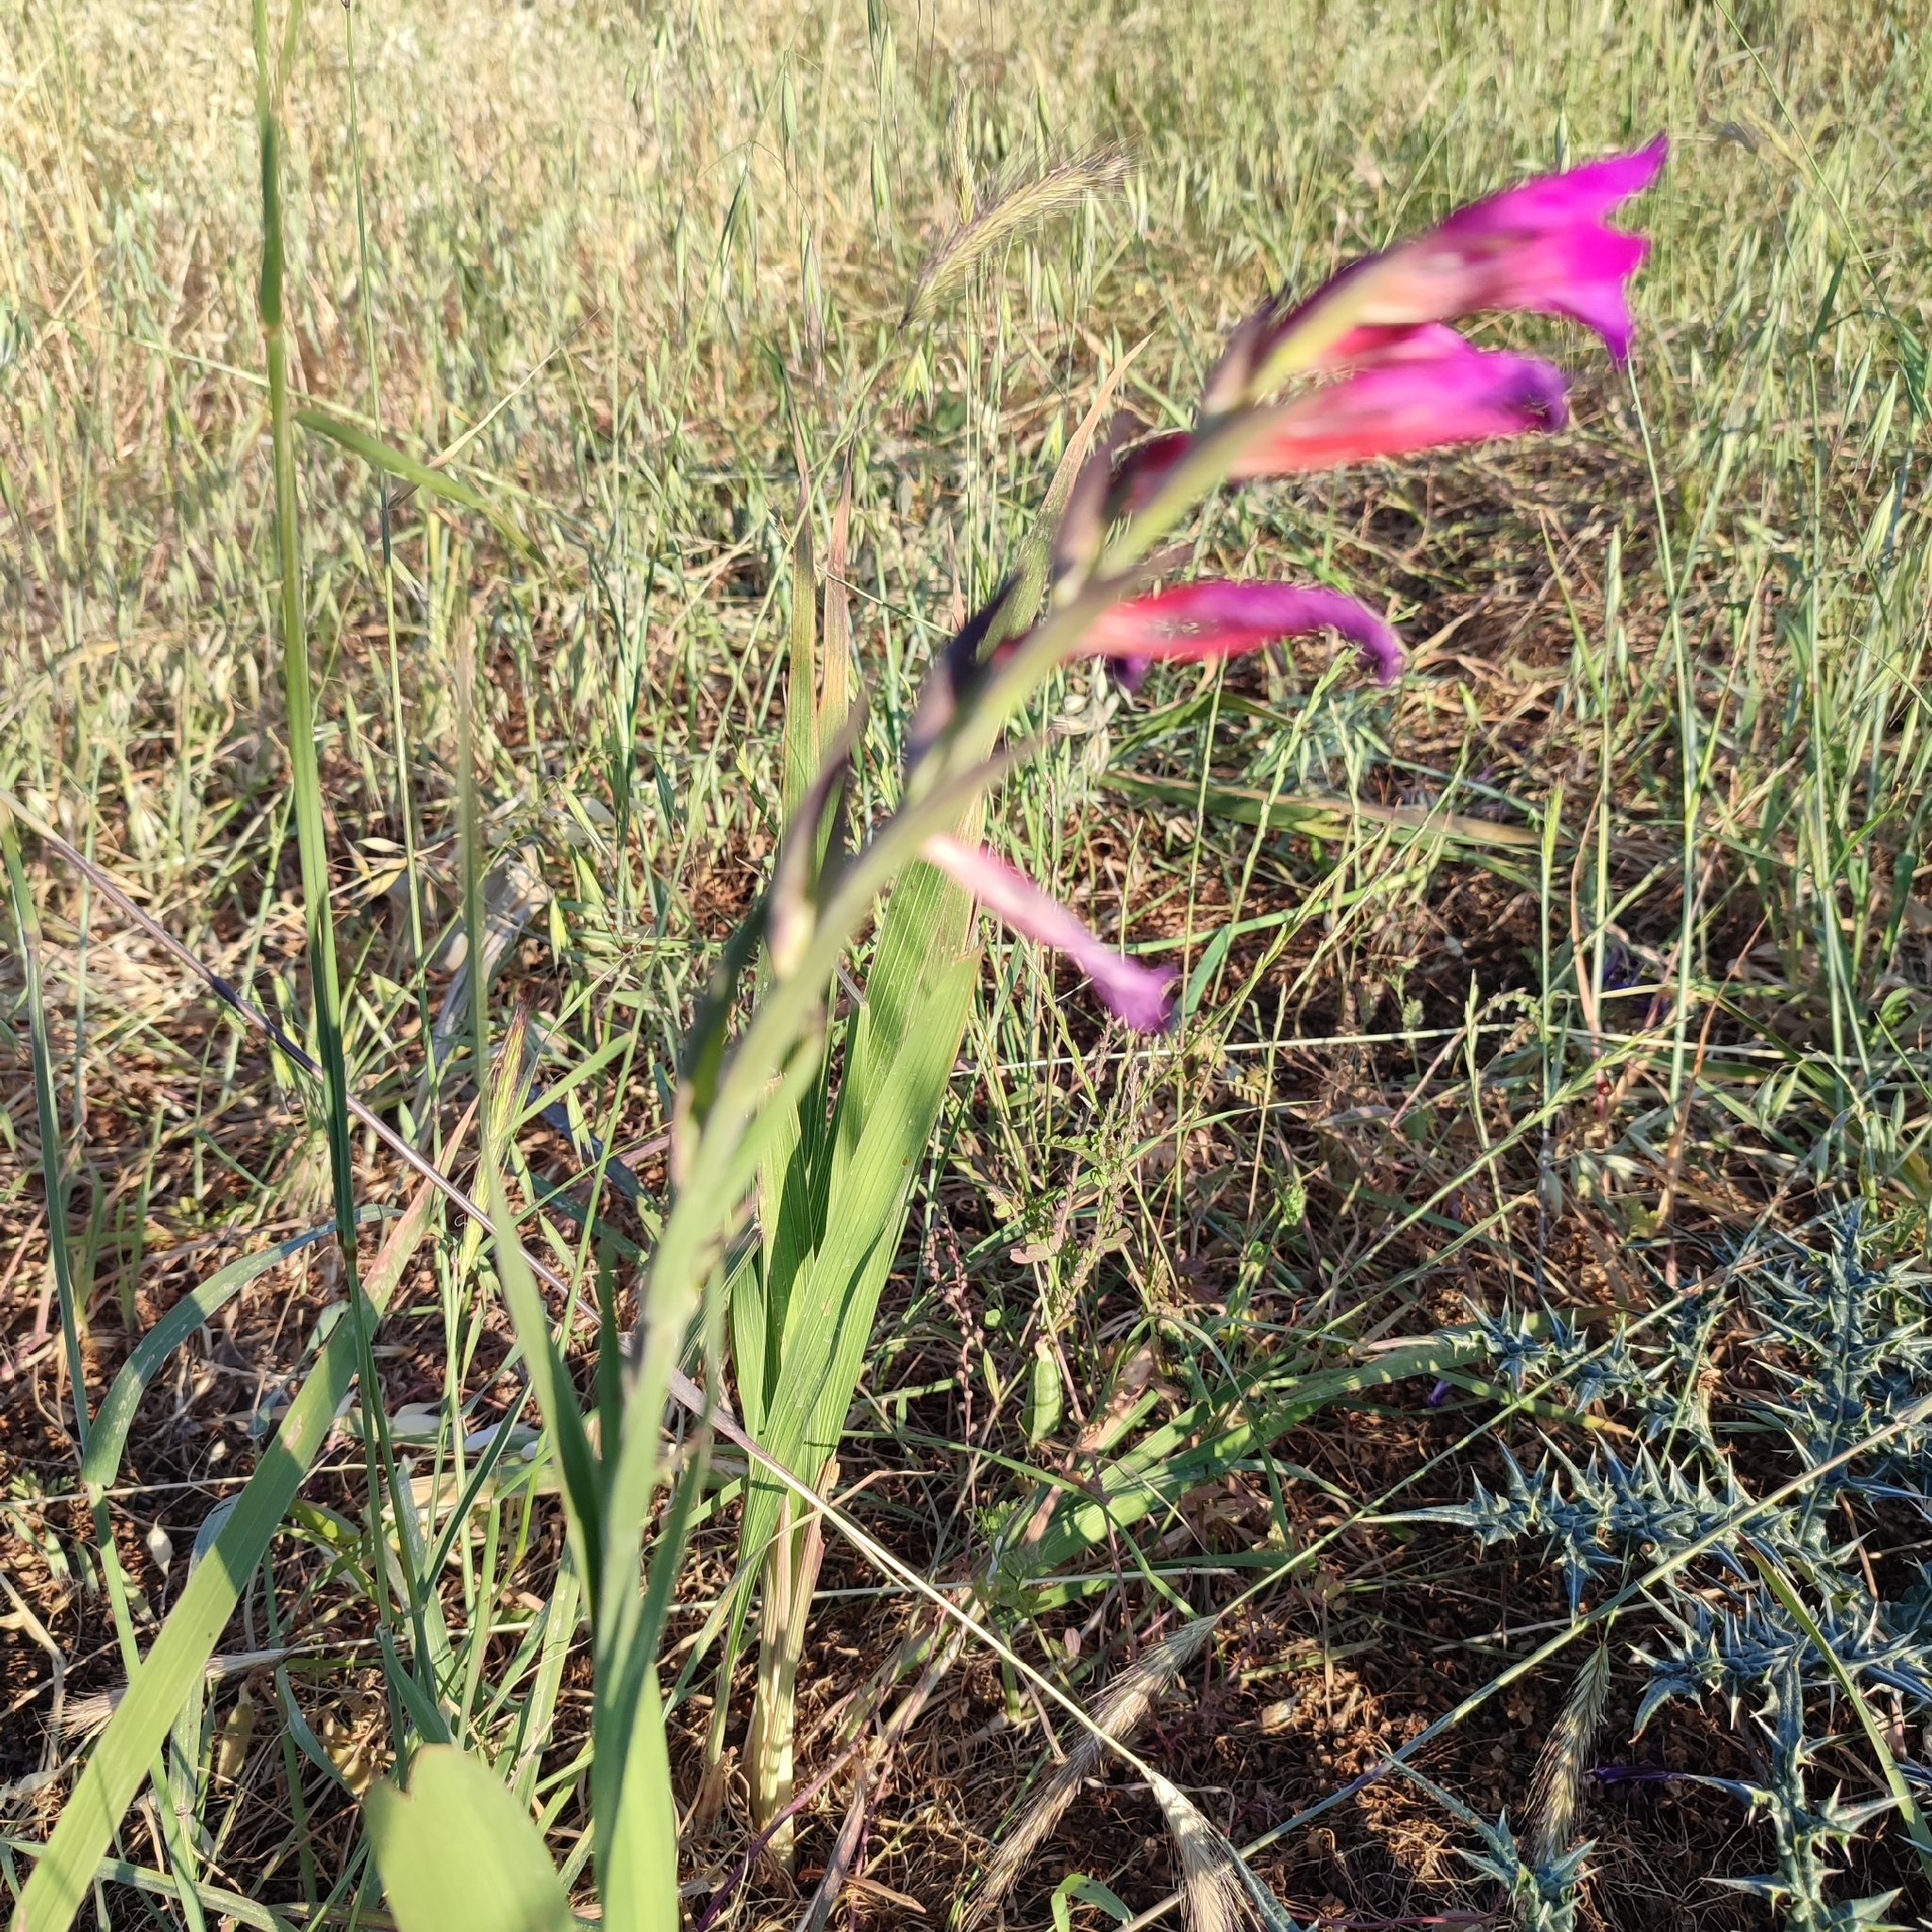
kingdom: Plantae
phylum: Tracheophyta
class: Liliopsida
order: Asparagales
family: Iridaceae
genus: Gladiolus
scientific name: Gladiolus italicus
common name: Field gladiolus
